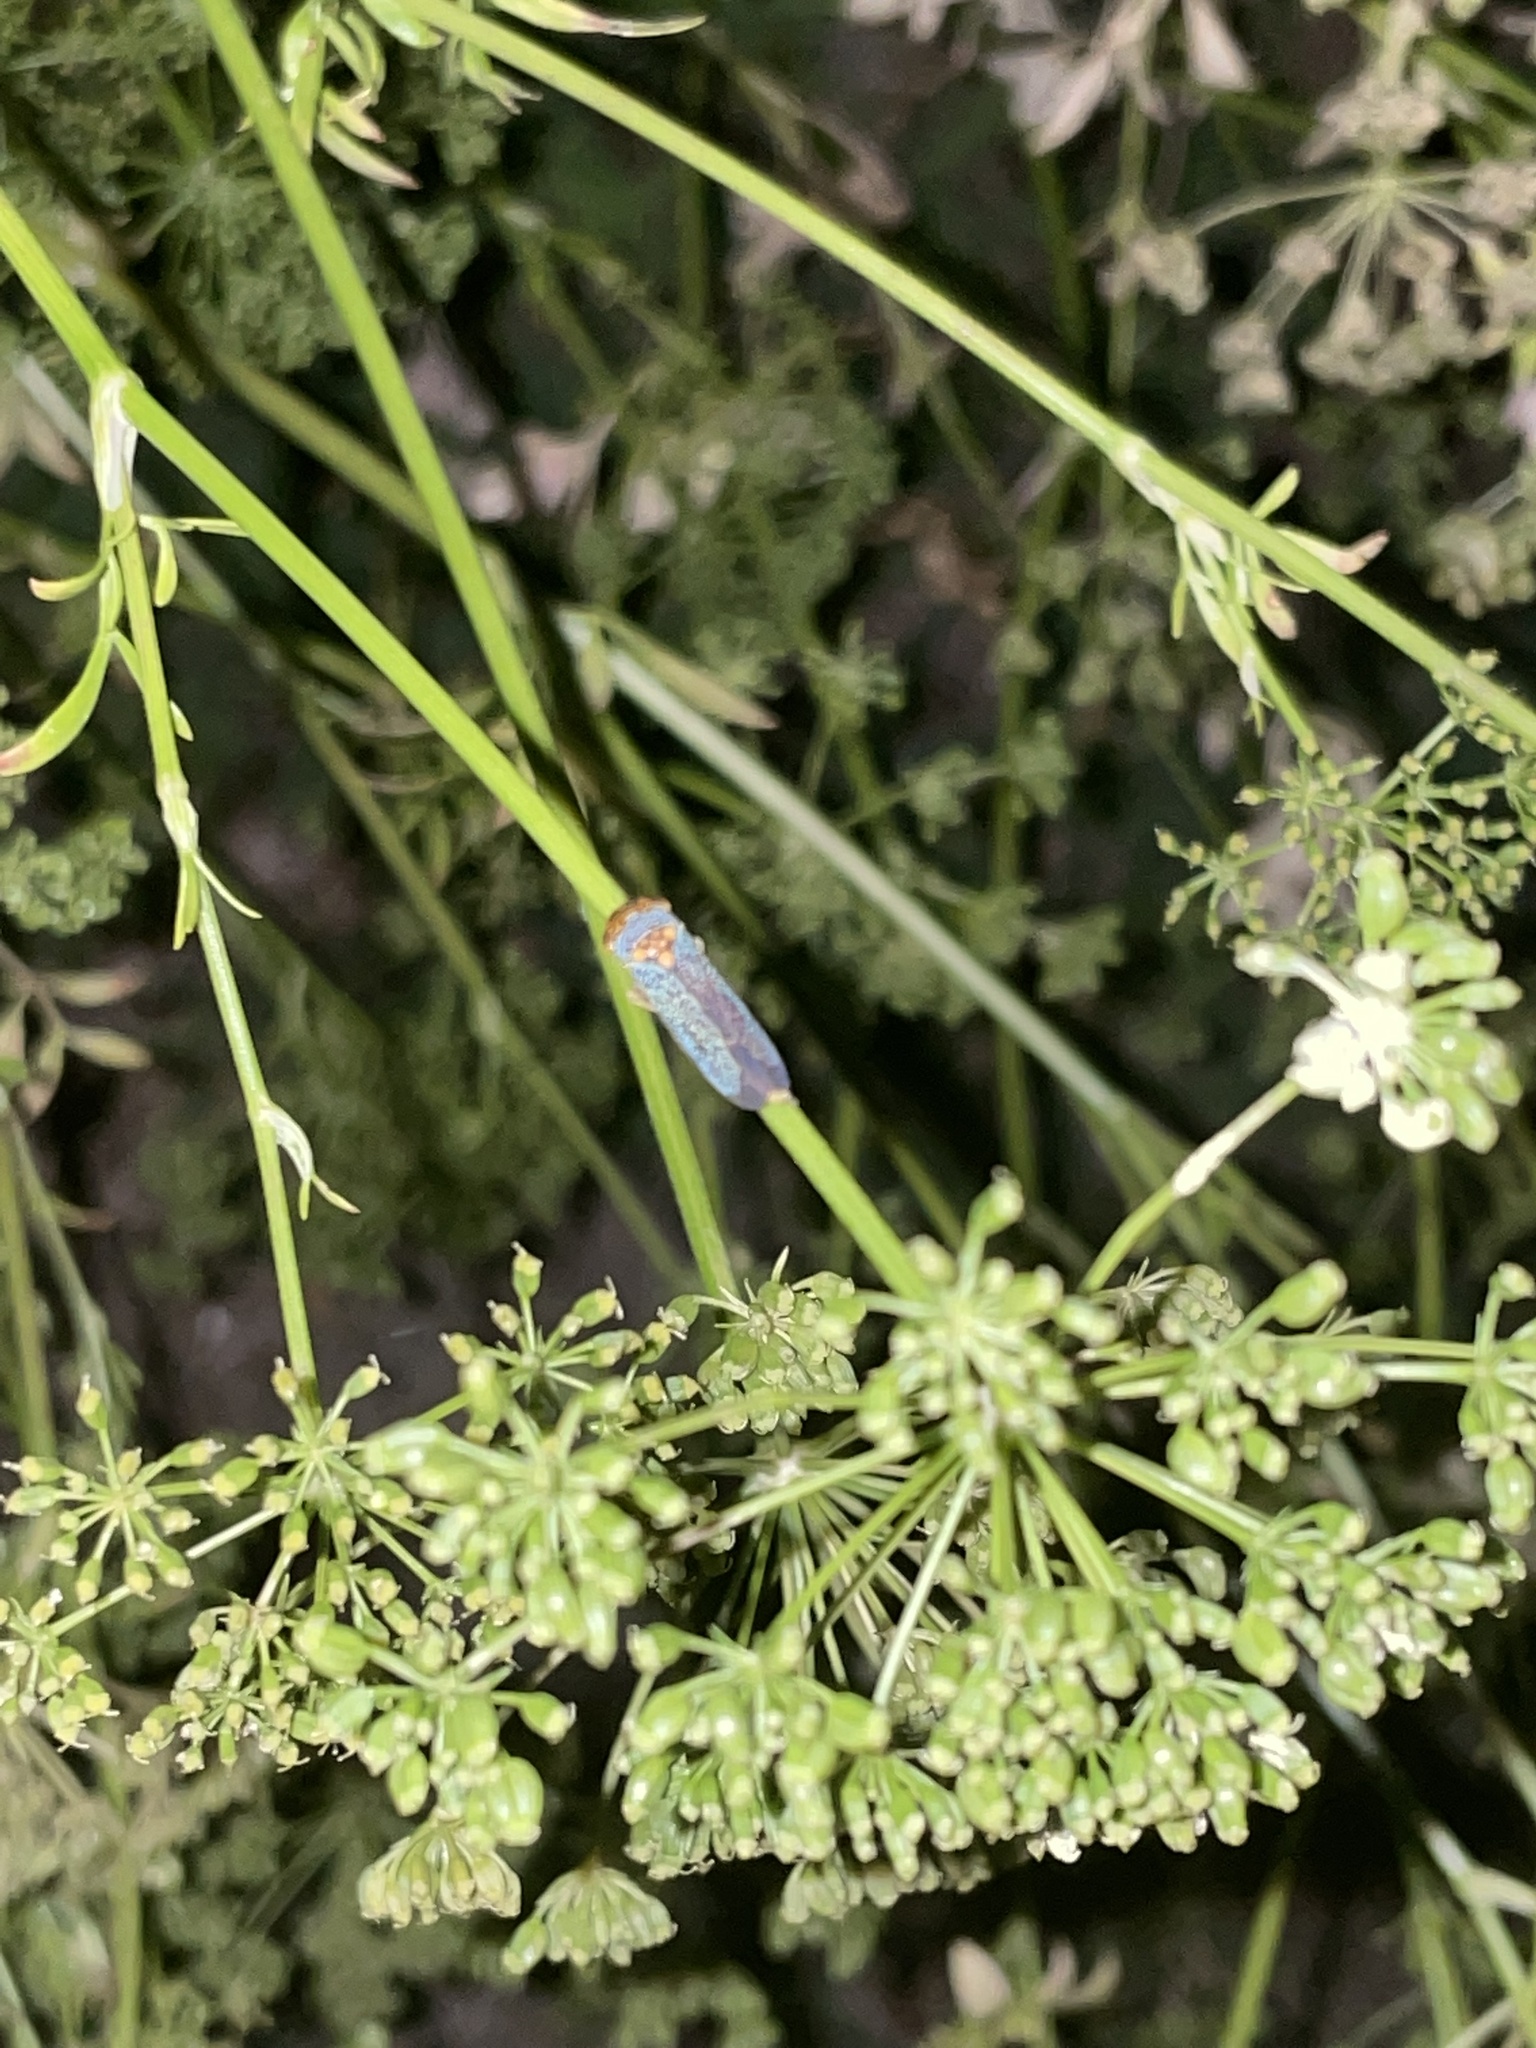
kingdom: Animalia
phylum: Arthropoda
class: Insecta
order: Hemiptera
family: Cicadellidae
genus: Oncometopia
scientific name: Oncometopia orbona
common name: Broad-headed sharpshooter
